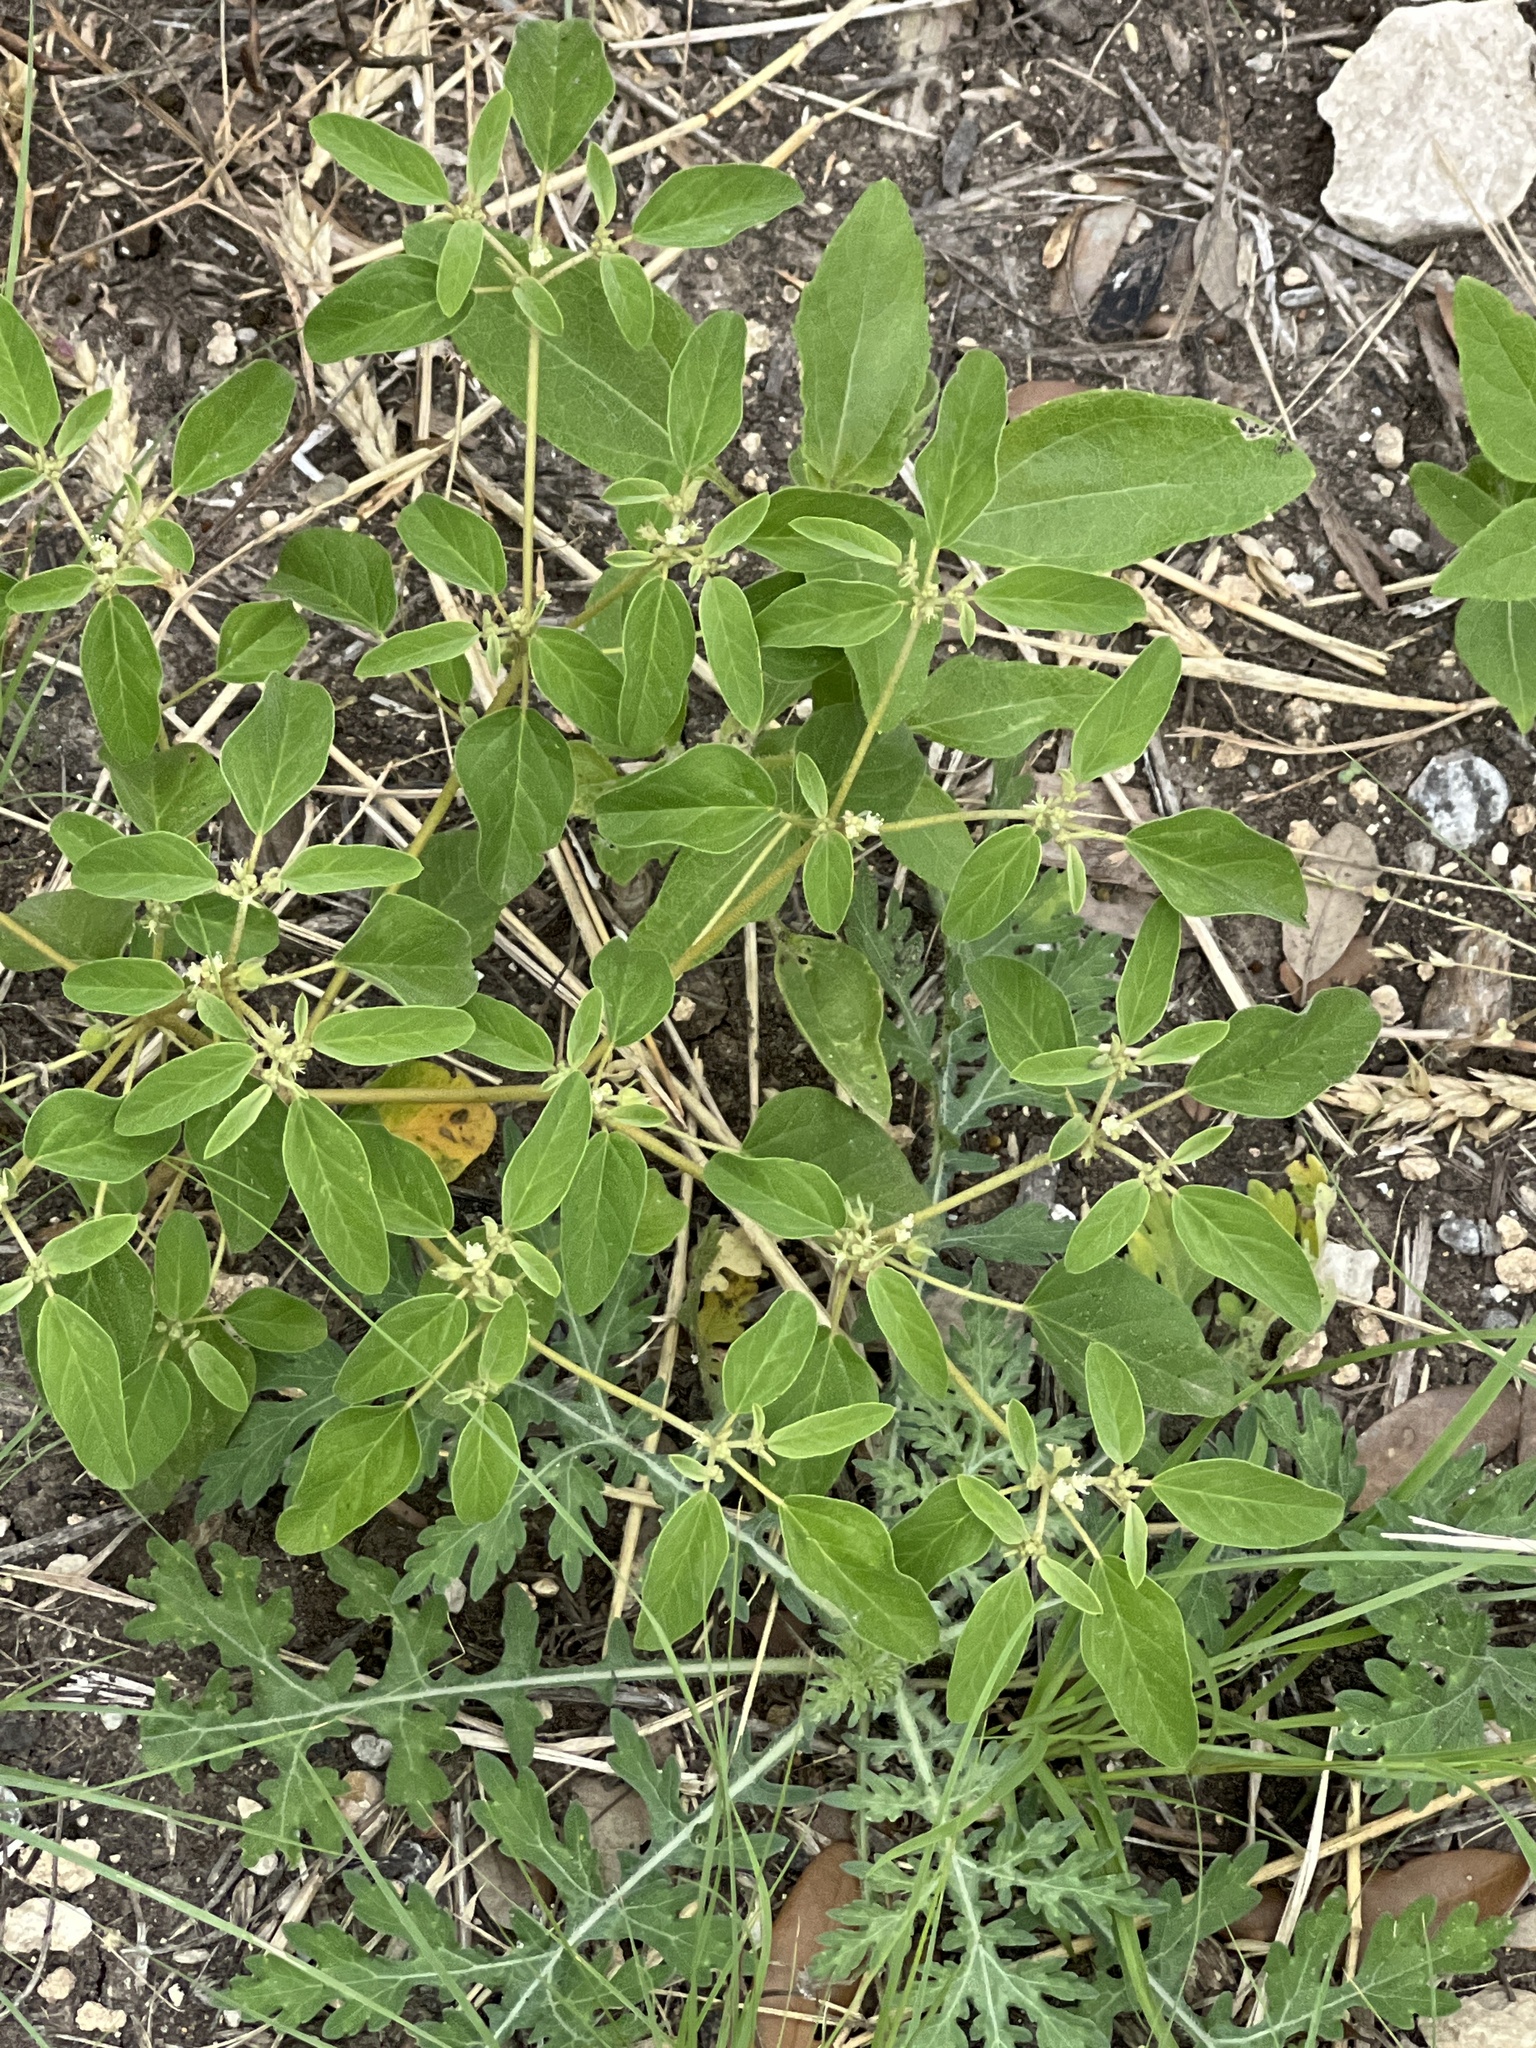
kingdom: Plantae
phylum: Tracheophyta
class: Magnoliopsida
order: Malpighiales
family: Euphorbiaceae
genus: Croton
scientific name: Croton monanthogynus
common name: One-seed croton
